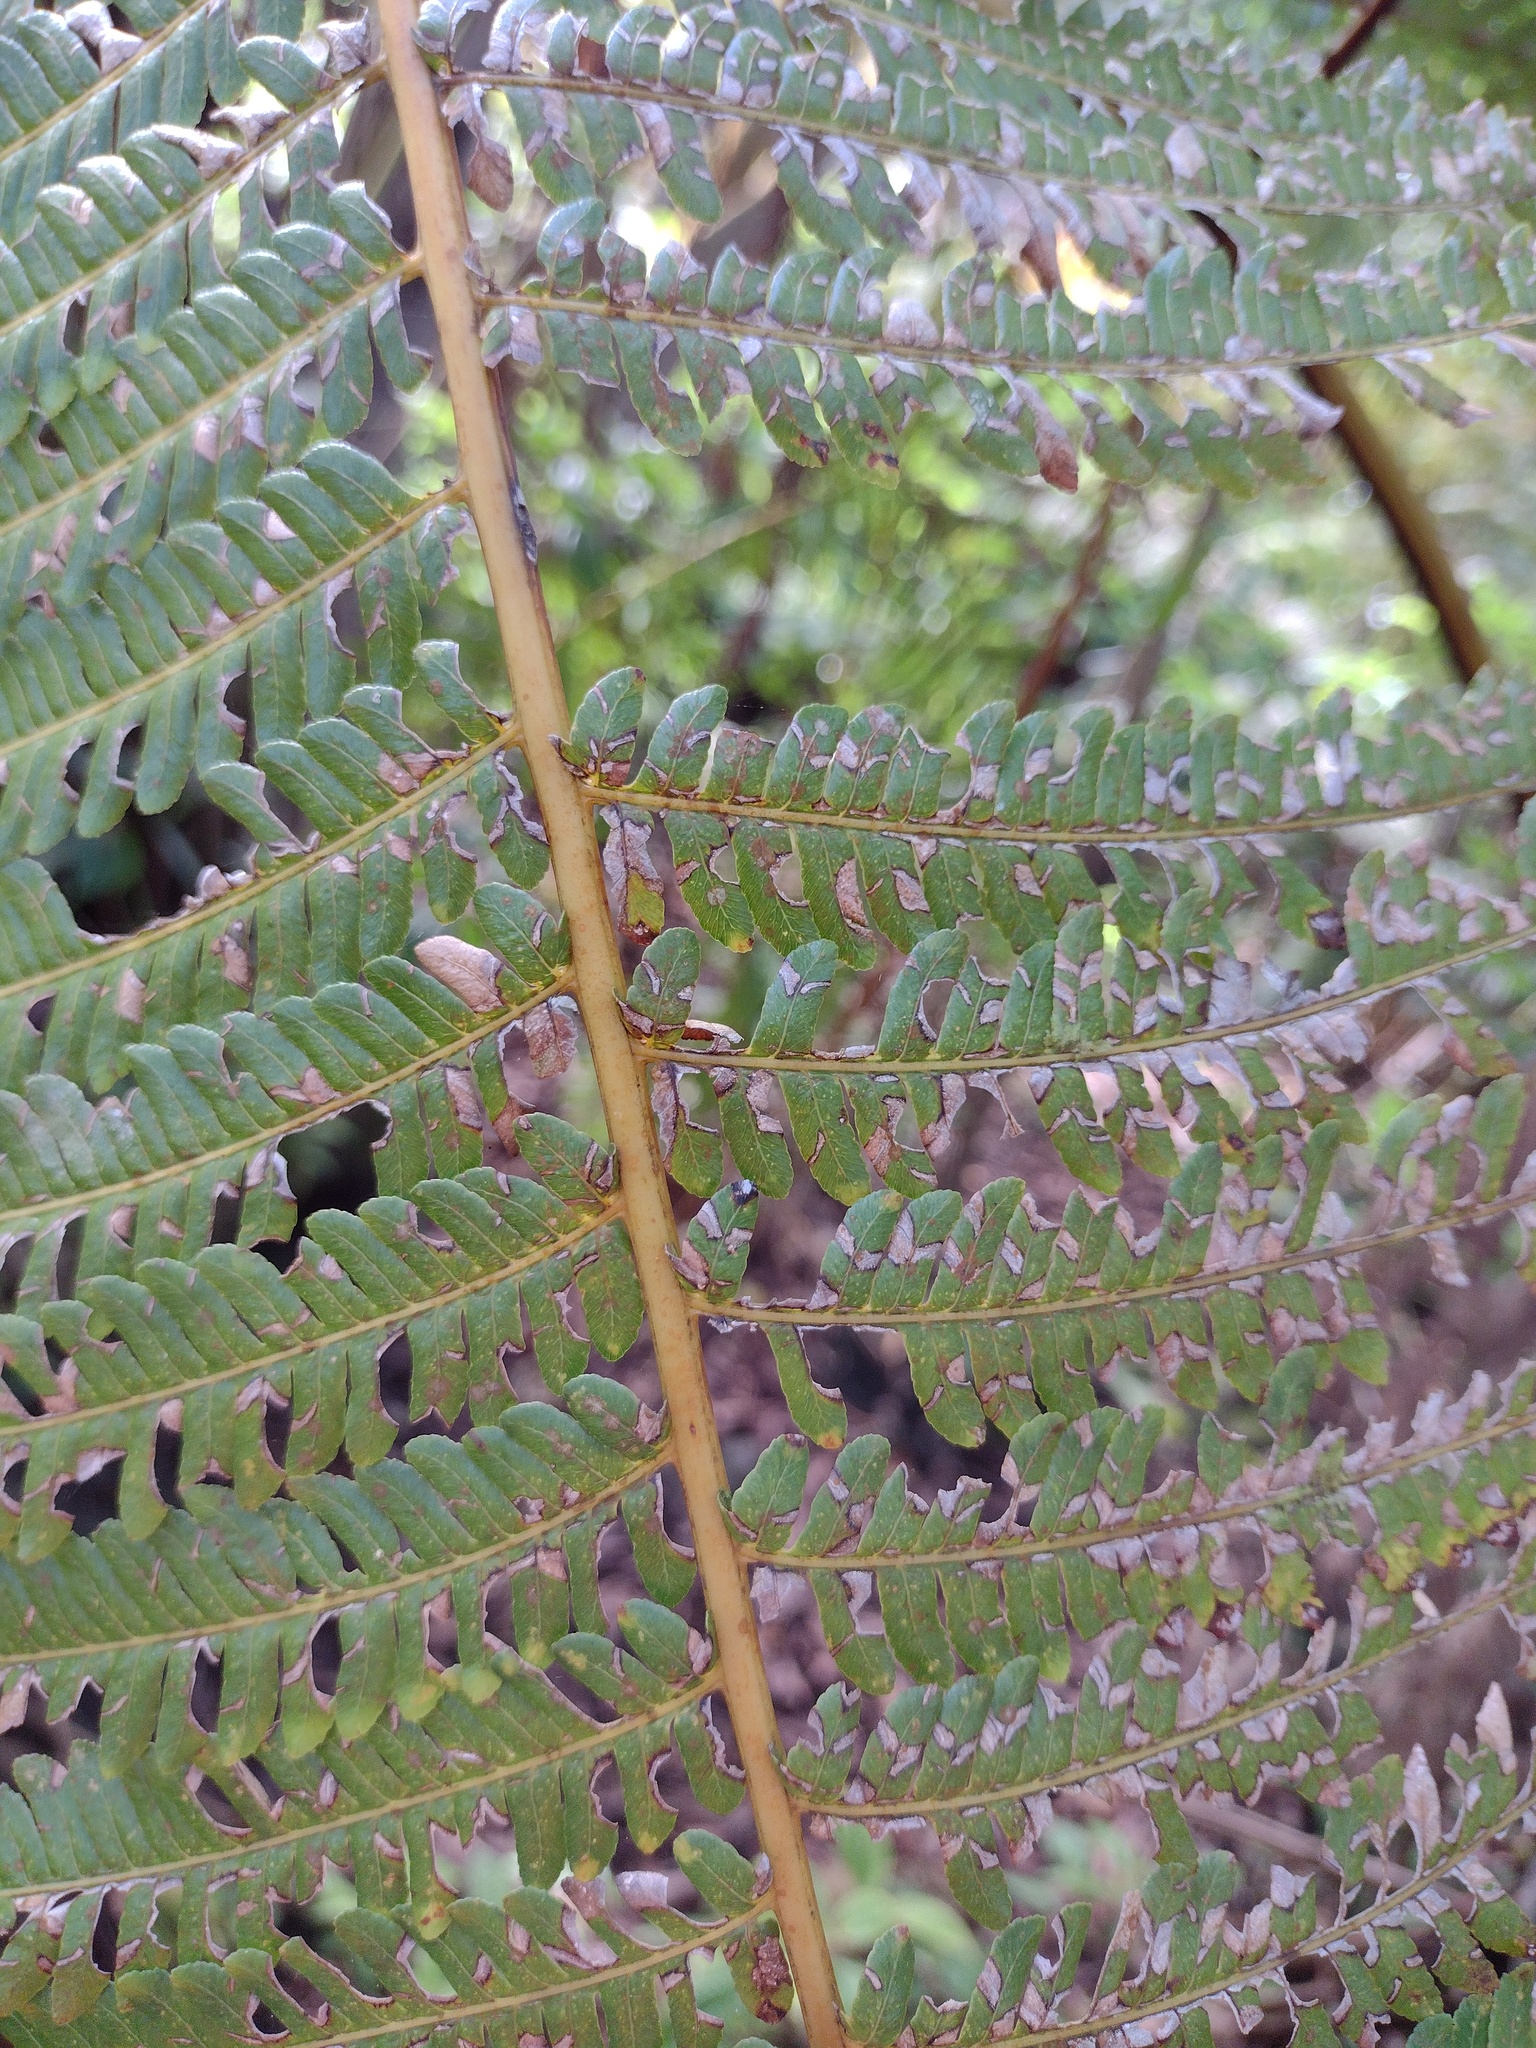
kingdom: Plantae
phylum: Tracheophyta
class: Polypodiopsida
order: Cyatheales
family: Cibotiaceae
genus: Cibotium
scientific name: Cibotium glaucum
